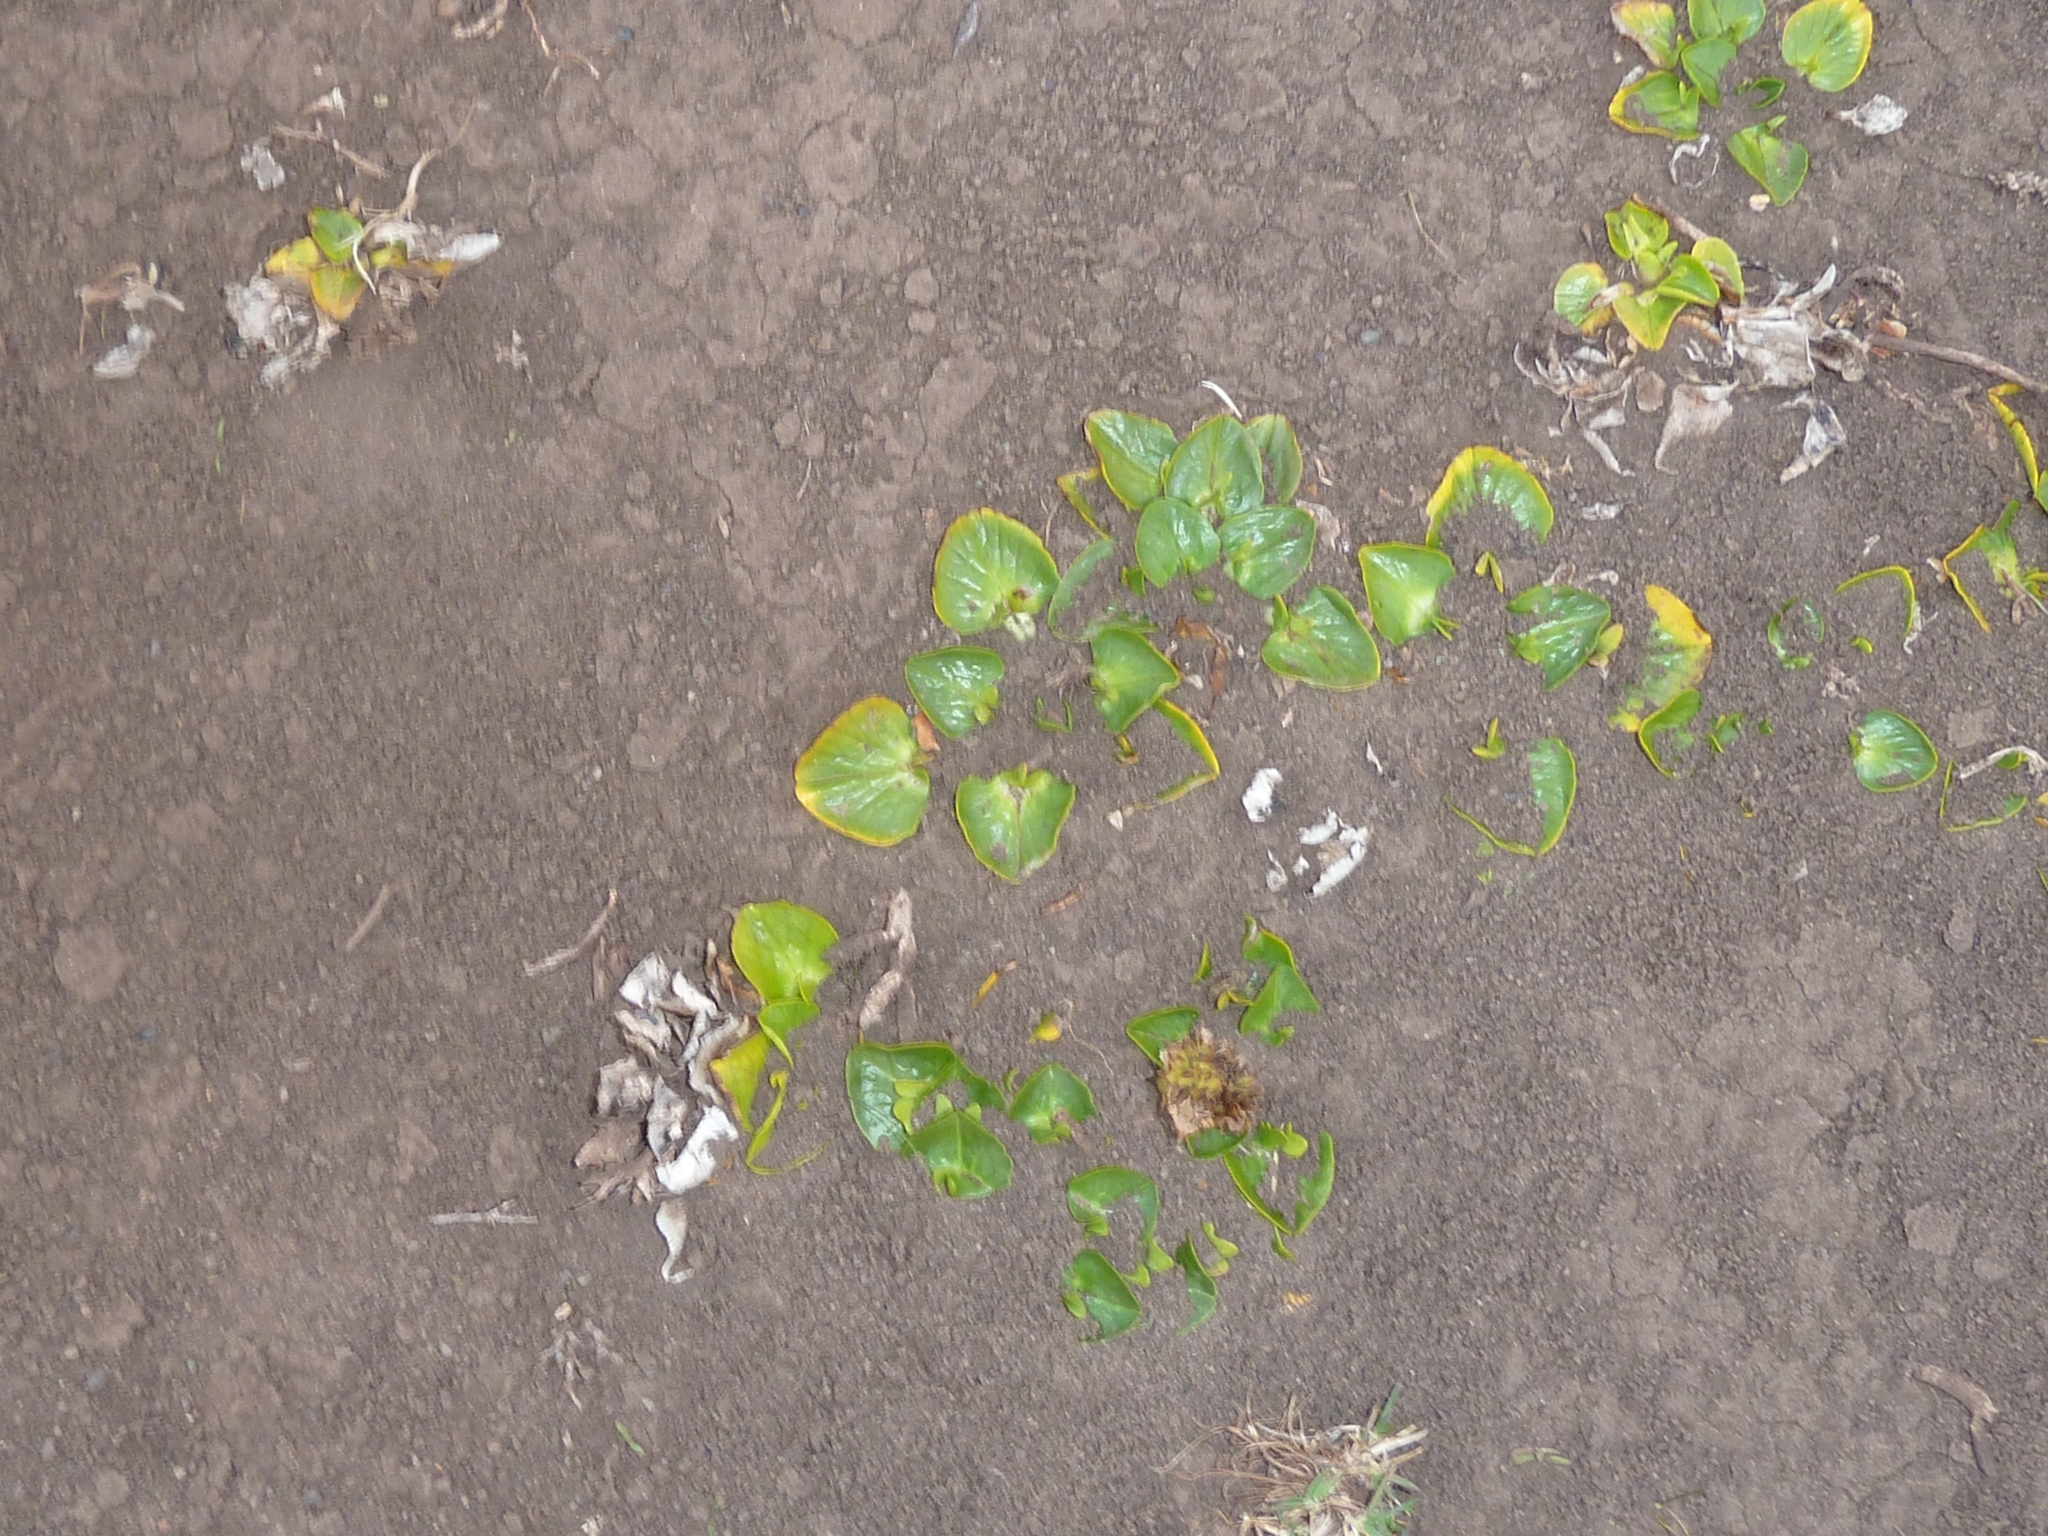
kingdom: Plantae
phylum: Tracheophyta
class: Magnoliopsida
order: Ranunculales
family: Ranunculaceae
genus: Caltha
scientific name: Caltha sagittata
